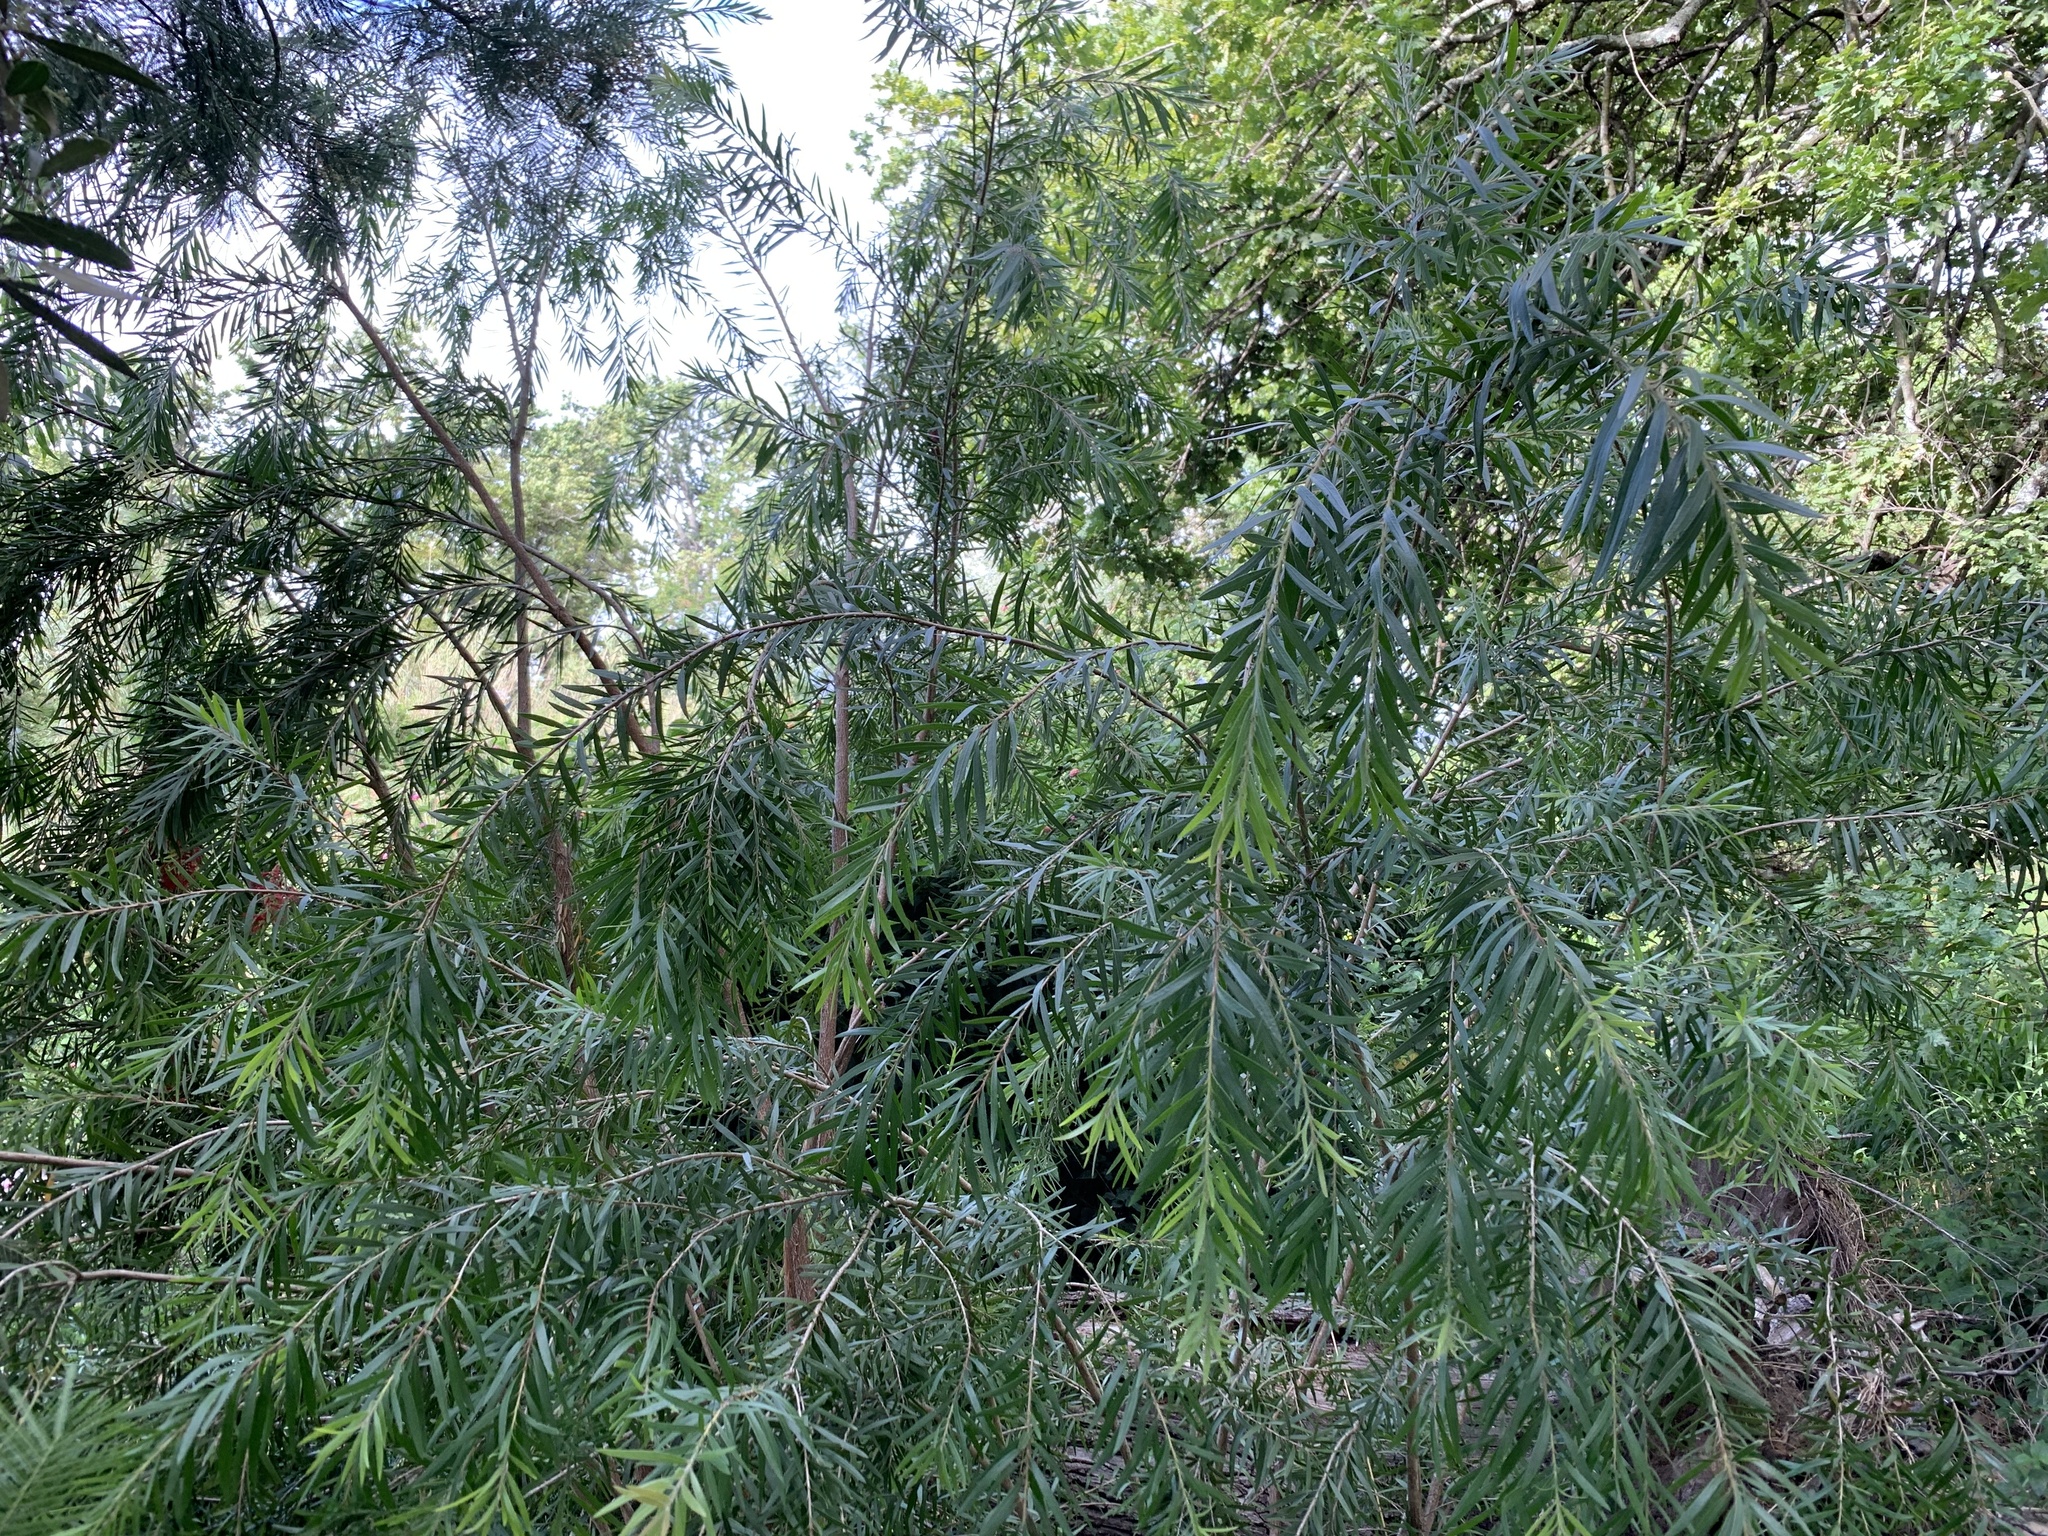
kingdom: Plantae
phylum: Tracheophyta
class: Magnoliopsida
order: Myrtales
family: Myrtaceae
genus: Callistemon
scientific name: Callistemon viminalis
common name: Drooping bottlebrush
